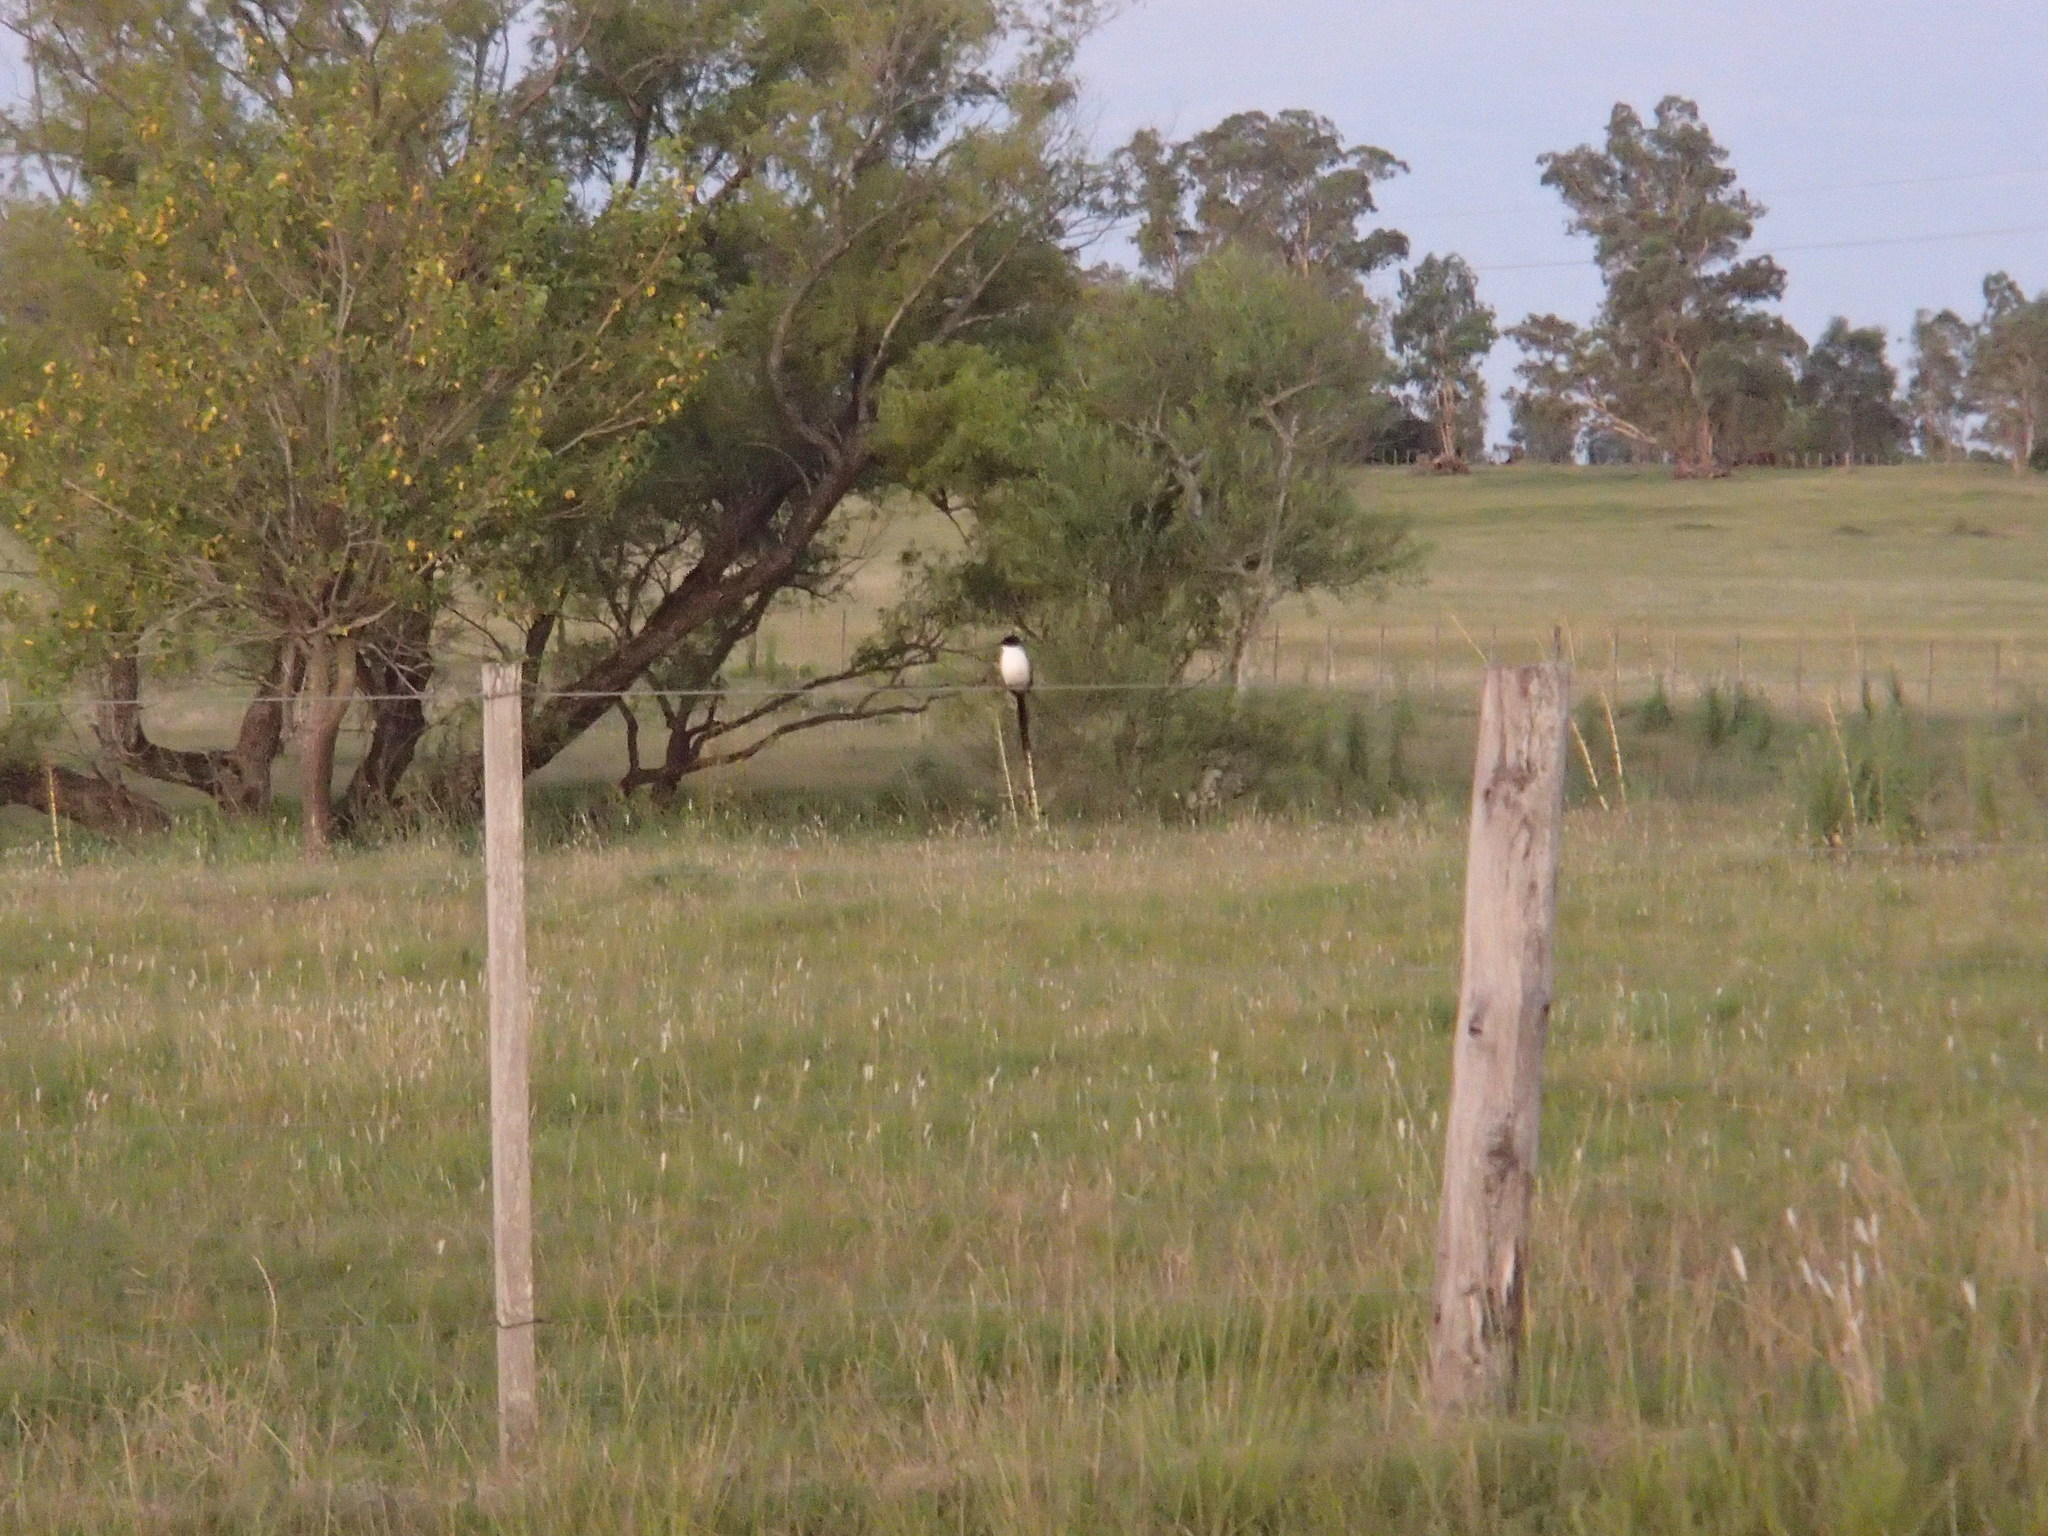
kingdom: Animalia
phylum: Chordata
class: Aves
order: Passeriformes
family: Tyrannidae
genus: Tyrannus
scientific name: Tyrannus savana
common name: Fork-tailed flycatcher
